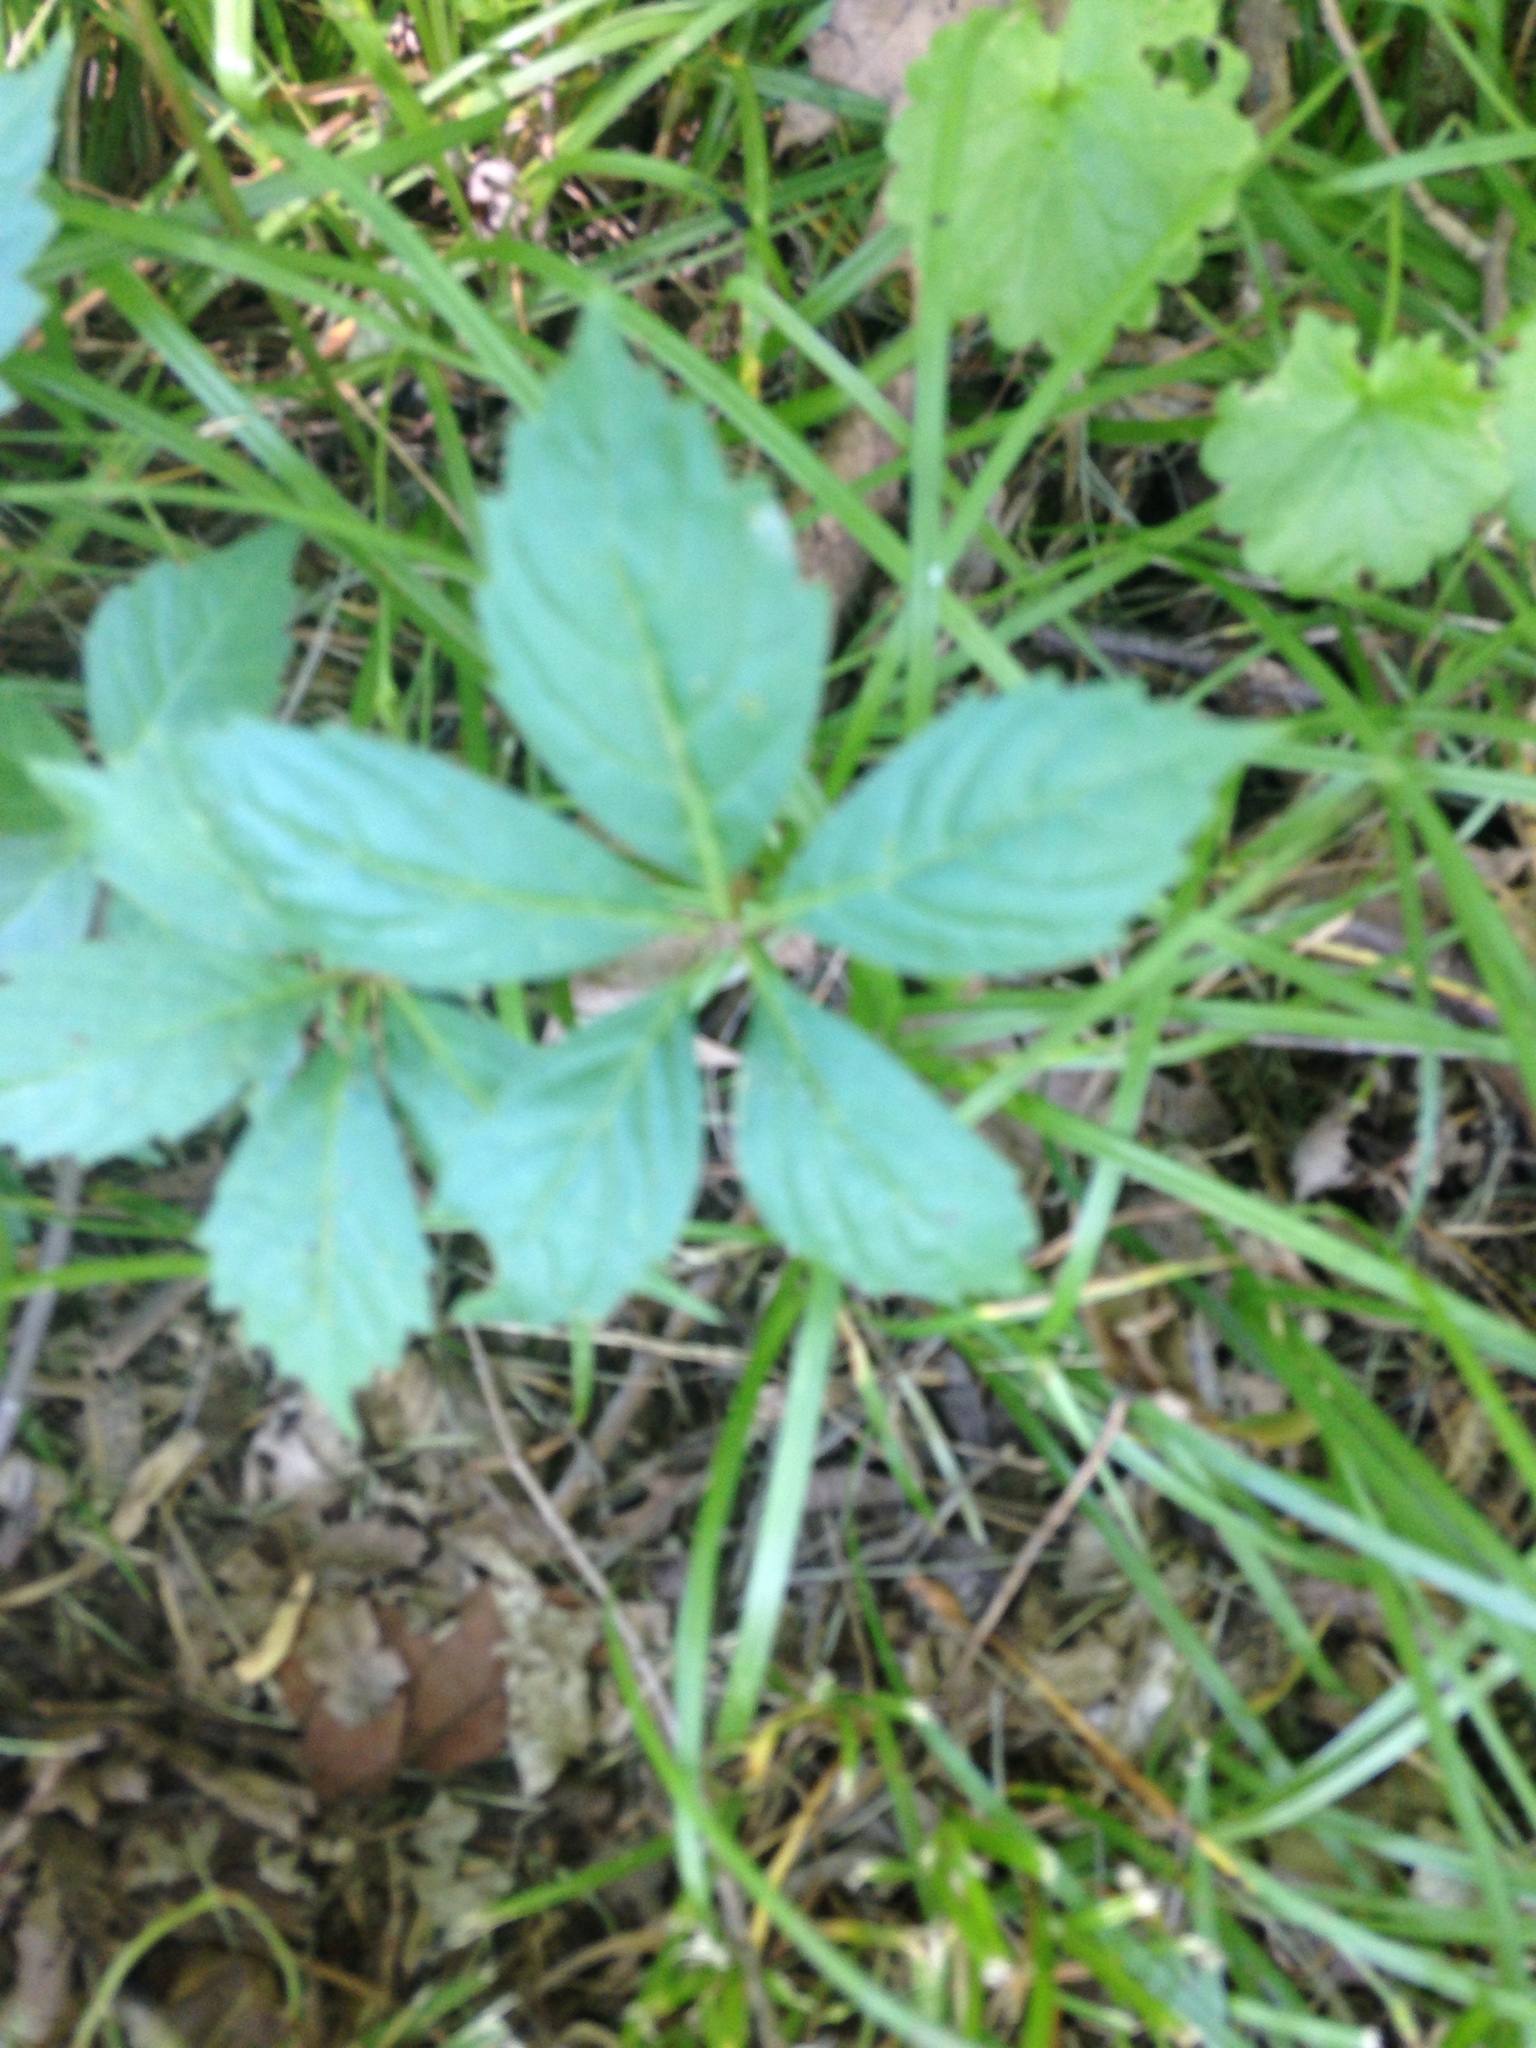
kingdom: Plantae
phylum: Tracheophyta
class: Magnoliopsida
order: Vitales
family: Vitaceae
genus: Parthenocissus
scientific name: Parthenocissus quinquefolia
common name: Virginia-creeper
